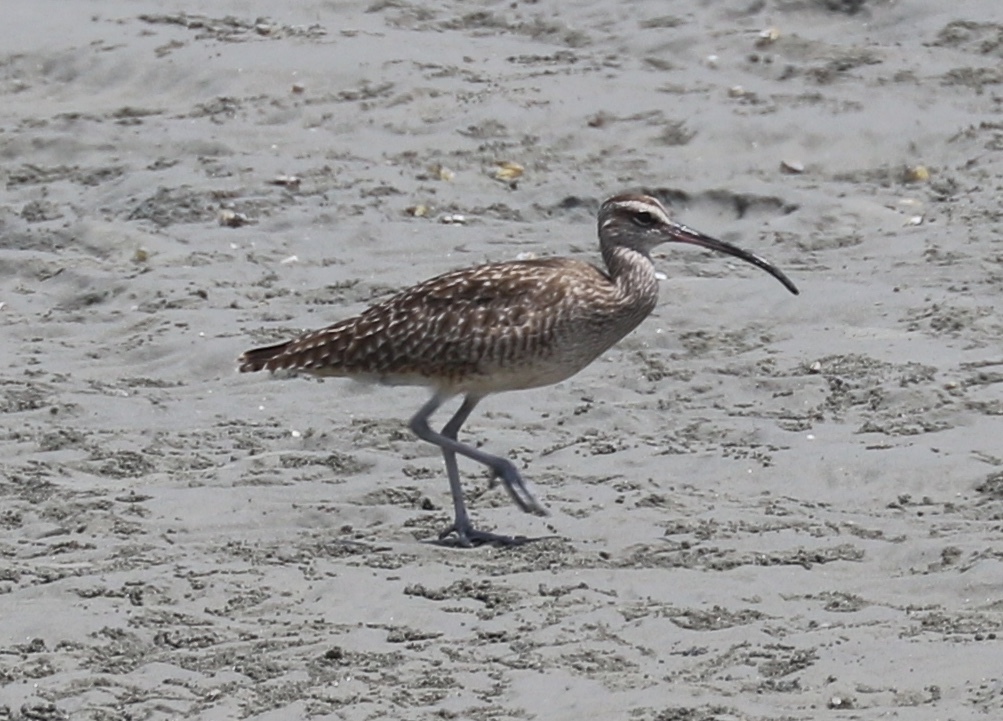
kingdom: Animalia
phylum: Chordata
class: Aves
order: Charadriiformes
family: Scolopacidae
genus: Numenius
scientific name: Numenius phaeopus
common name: Whimbrel
